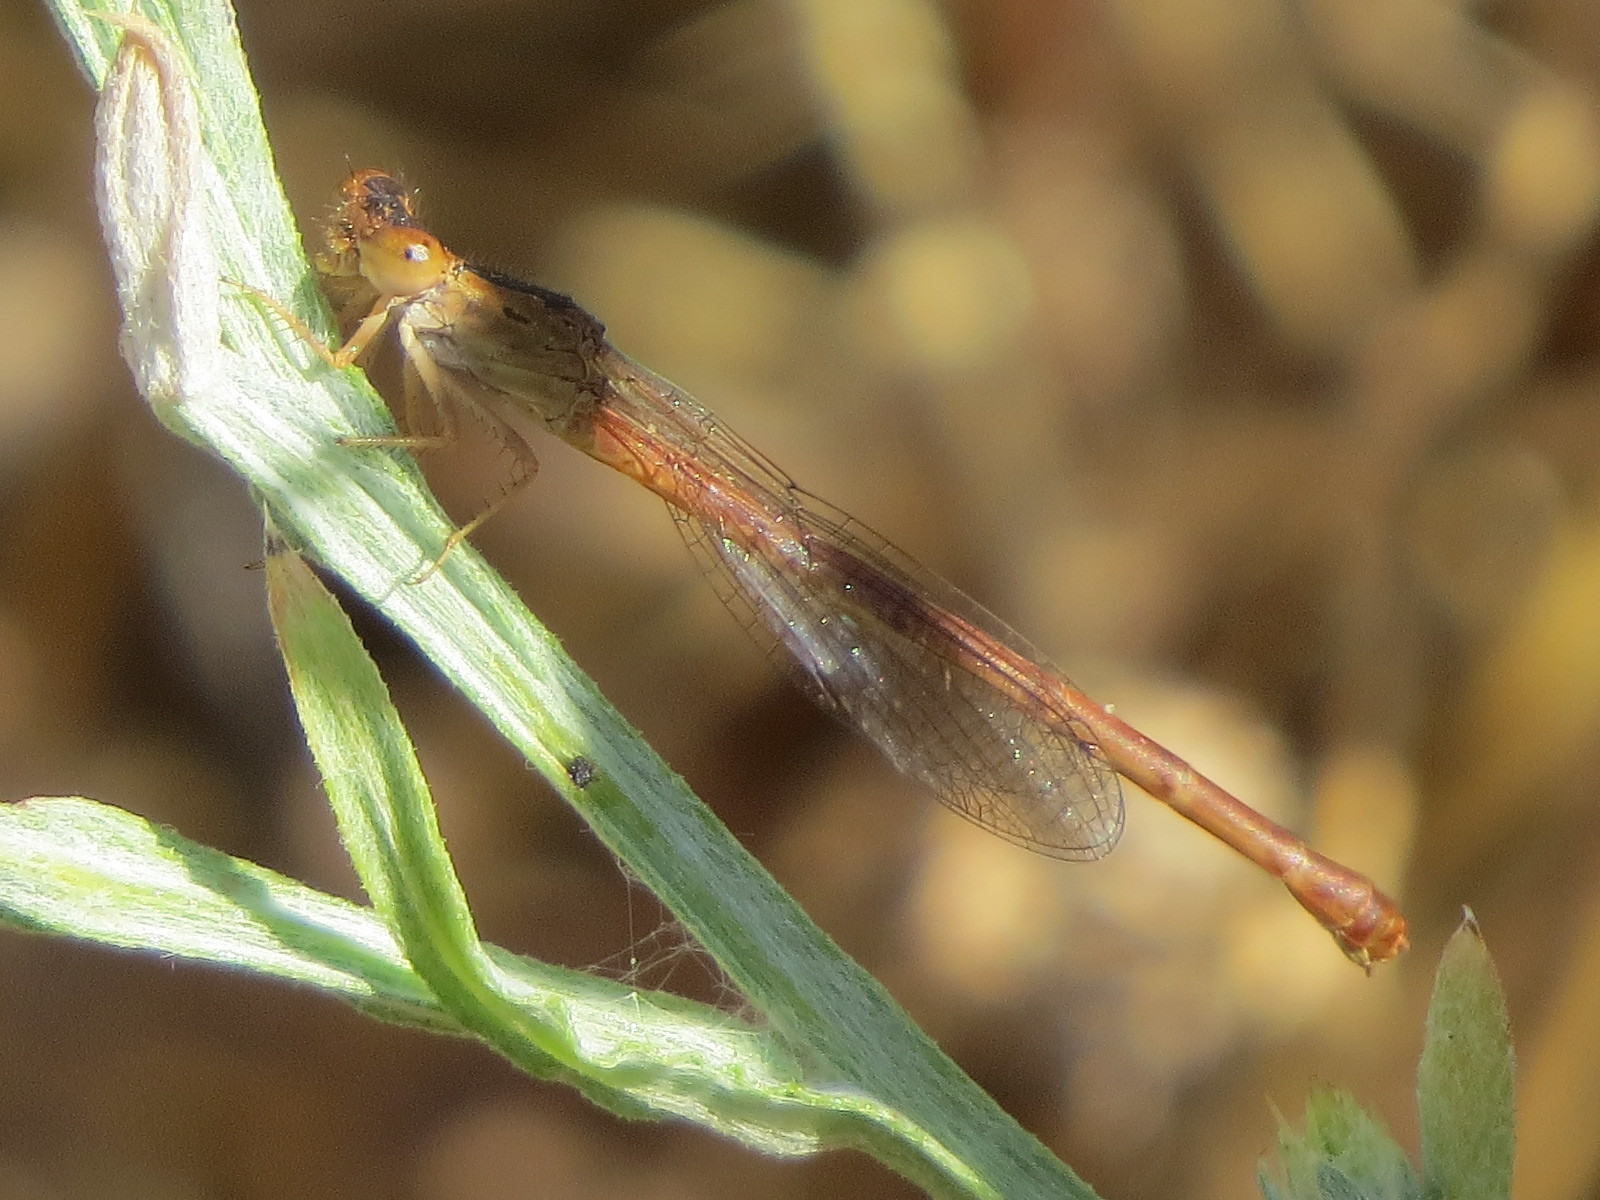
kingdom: Animalia
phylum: Arthropoda
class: Insecta
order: Odonata
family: Coenagrionidae
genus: Telebasis
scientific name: Telebasis salva
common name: Desert firetail
